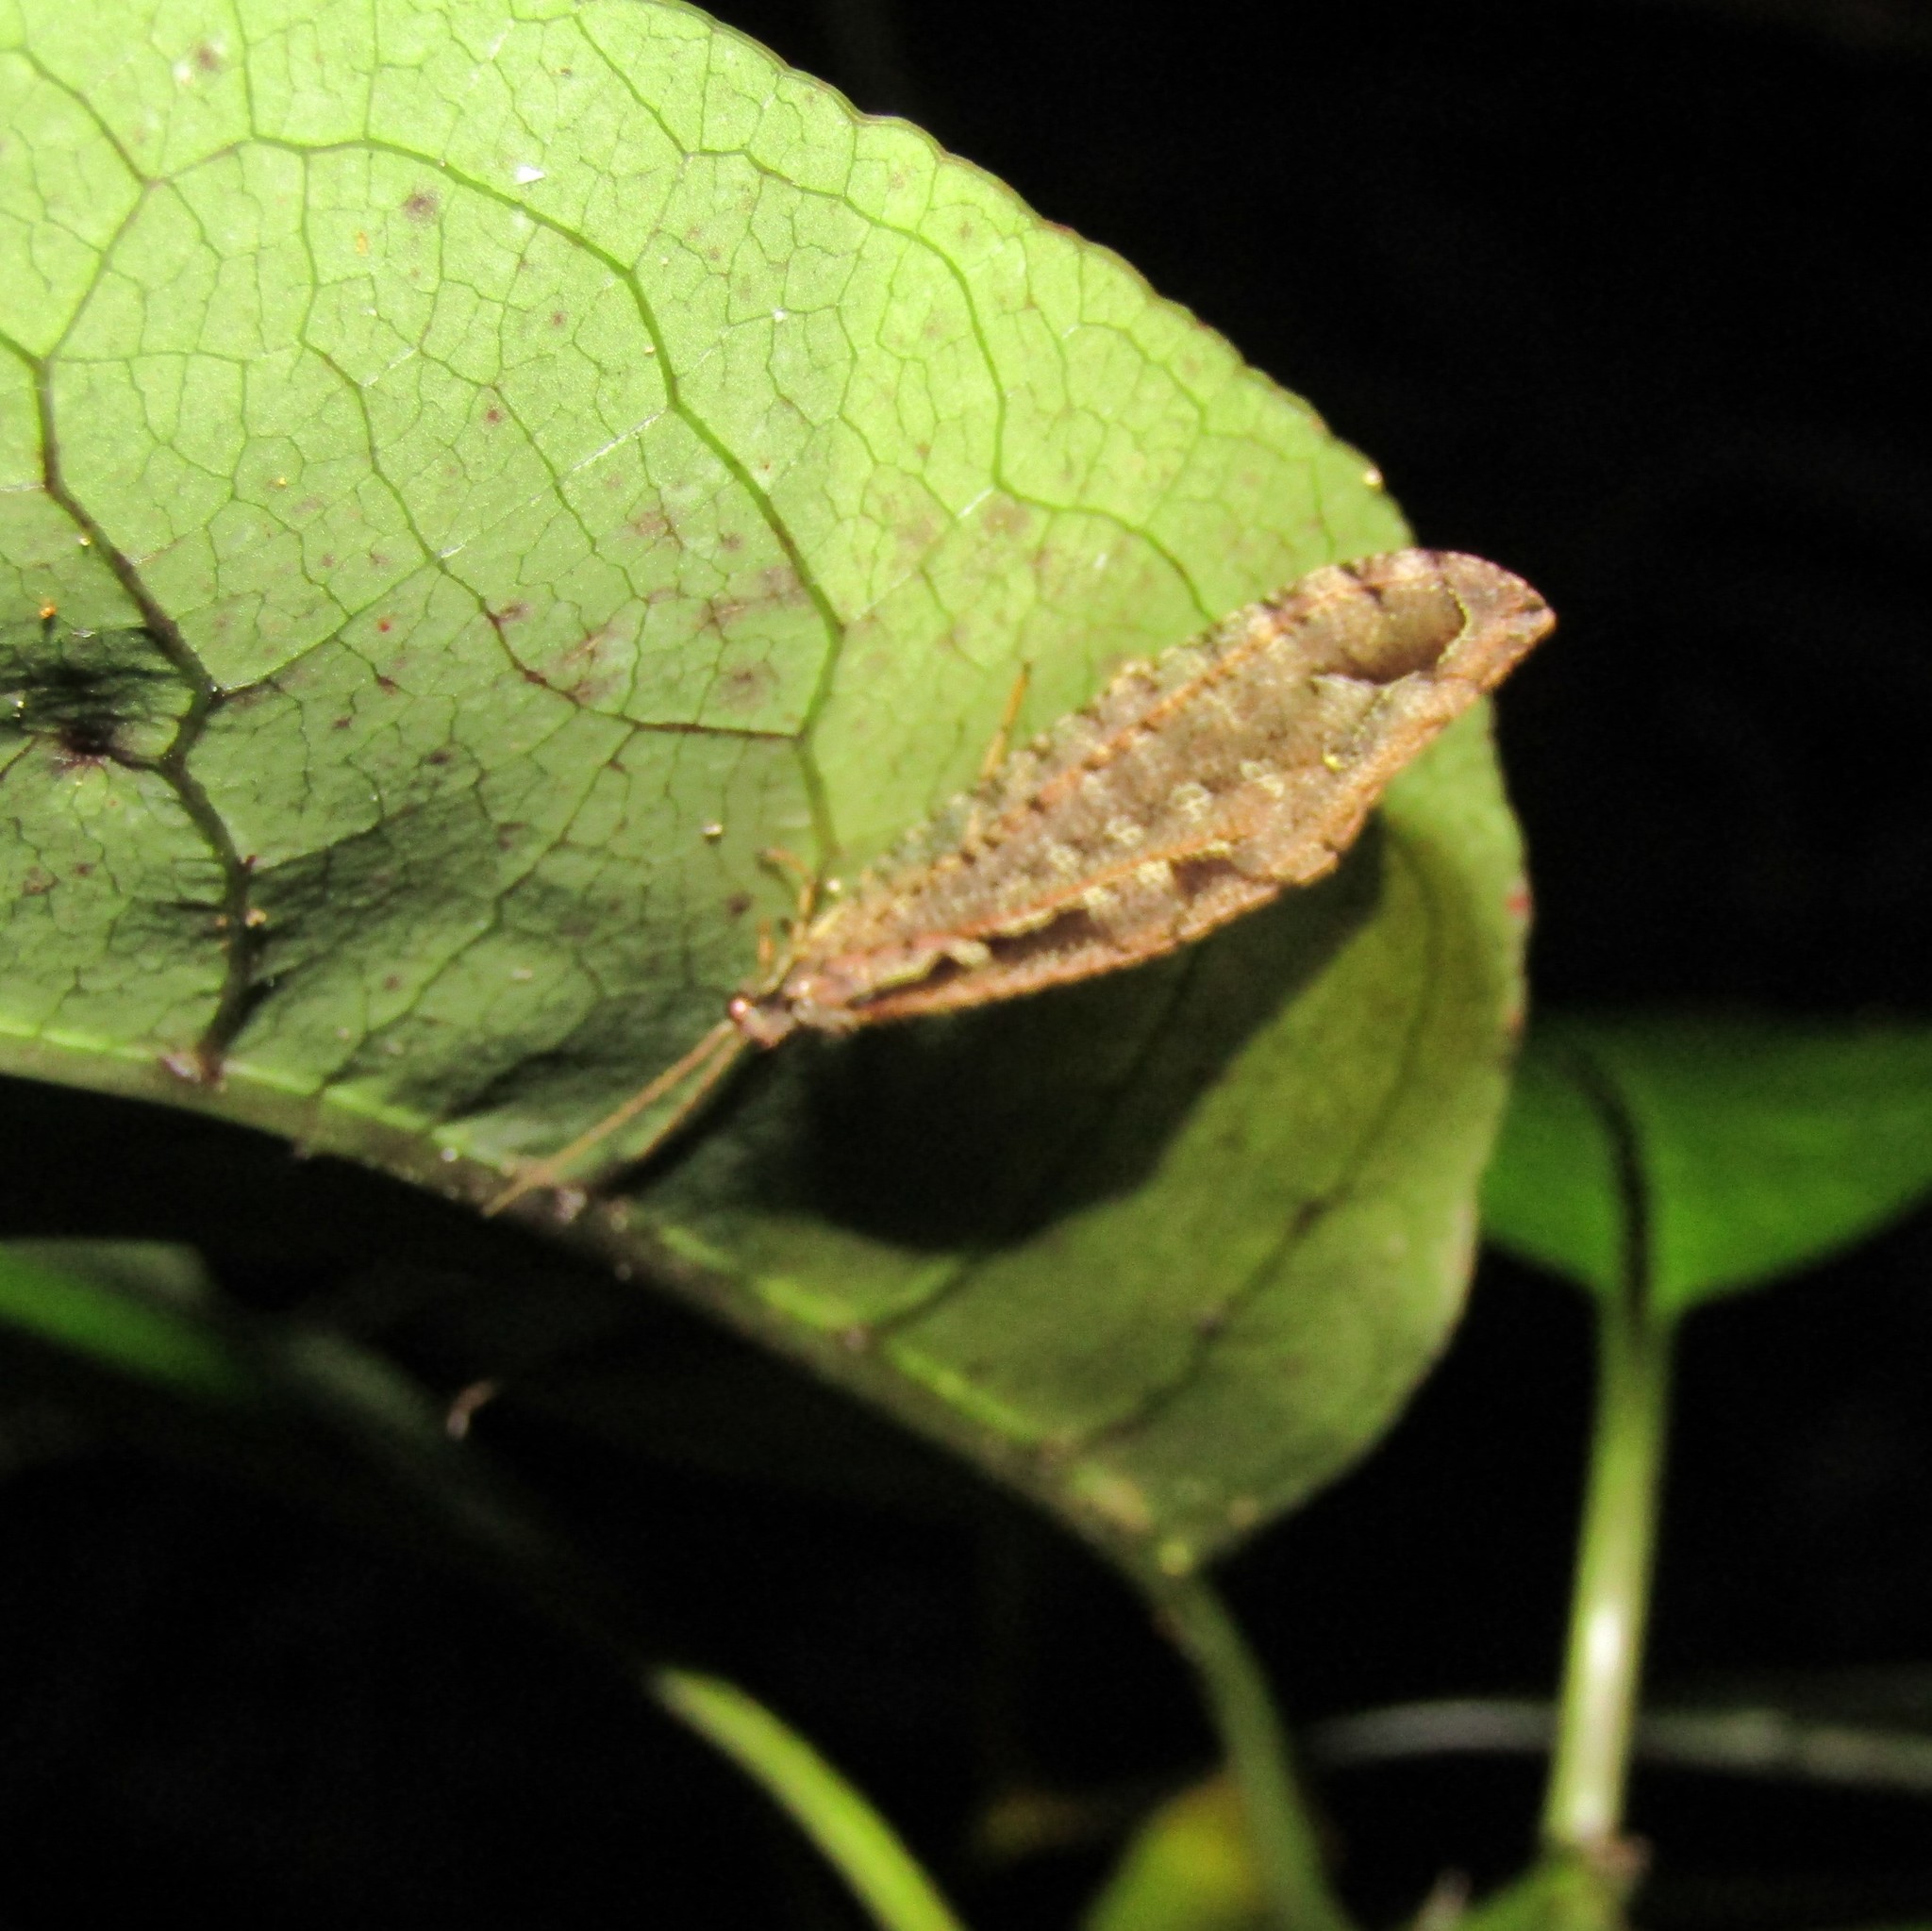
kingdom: Animalia
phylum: Arthropoda
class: Insecta
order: Neuroptera
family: Osmylidae
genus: Kempynus
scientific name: Kempynus incisus
